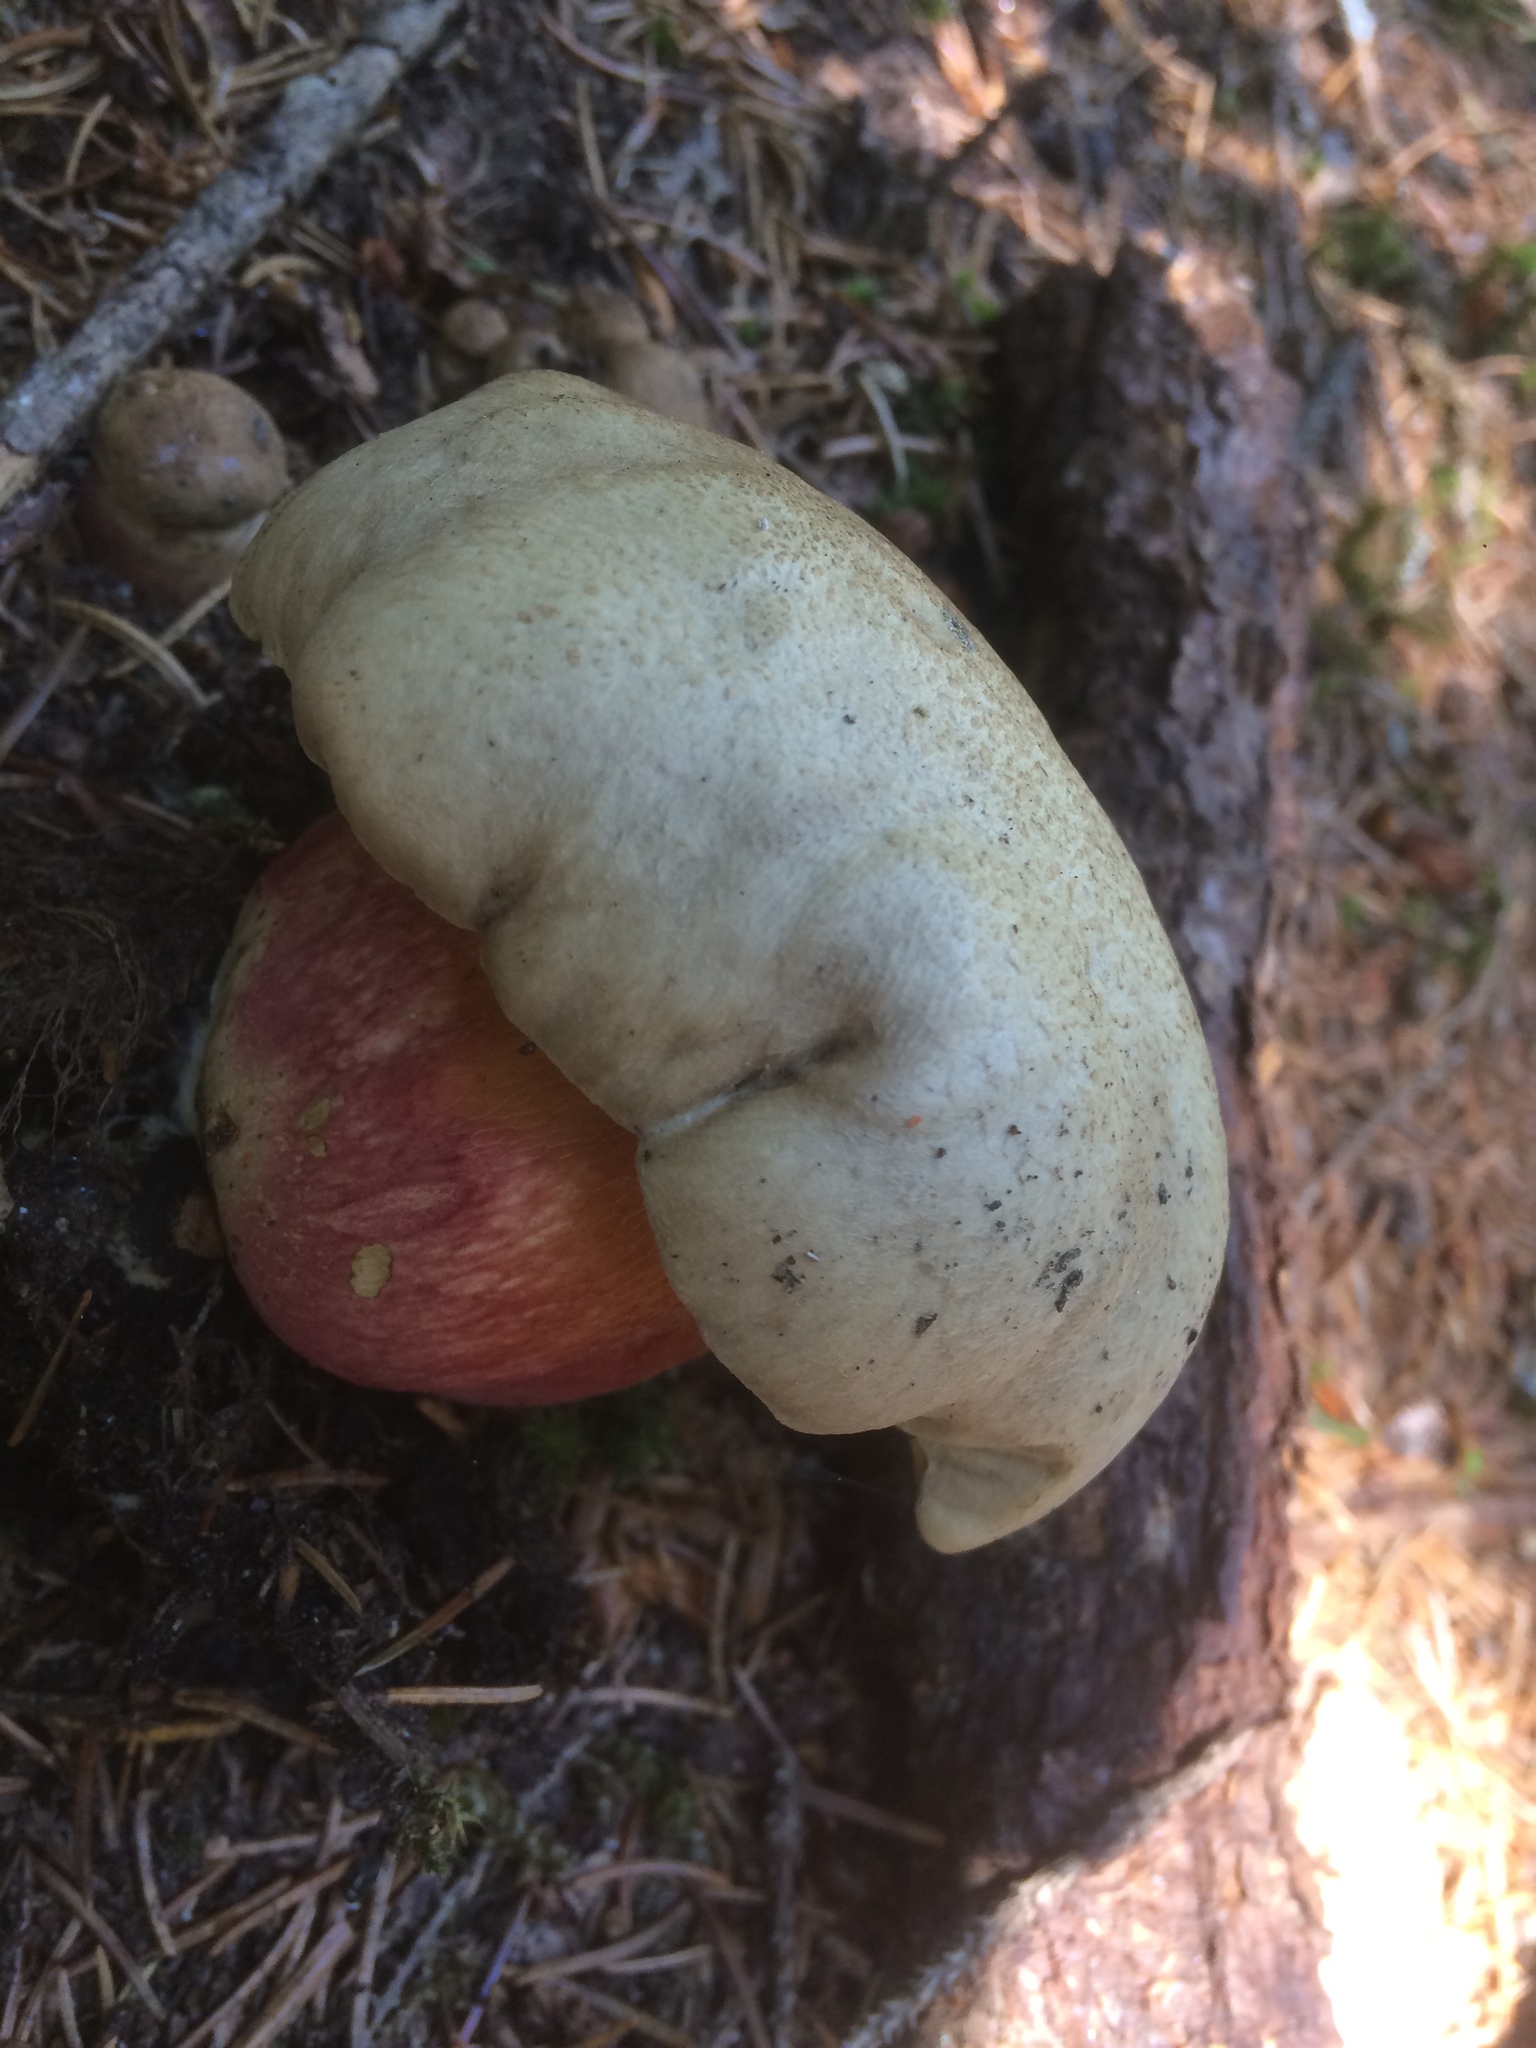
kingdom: Fungi
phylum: Basidiomycota
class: Agaricomycetes
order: Boletales
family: Boletaceae
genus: Caloboletus
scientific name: Caloboletus calopus
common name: Bitter beech bolete
